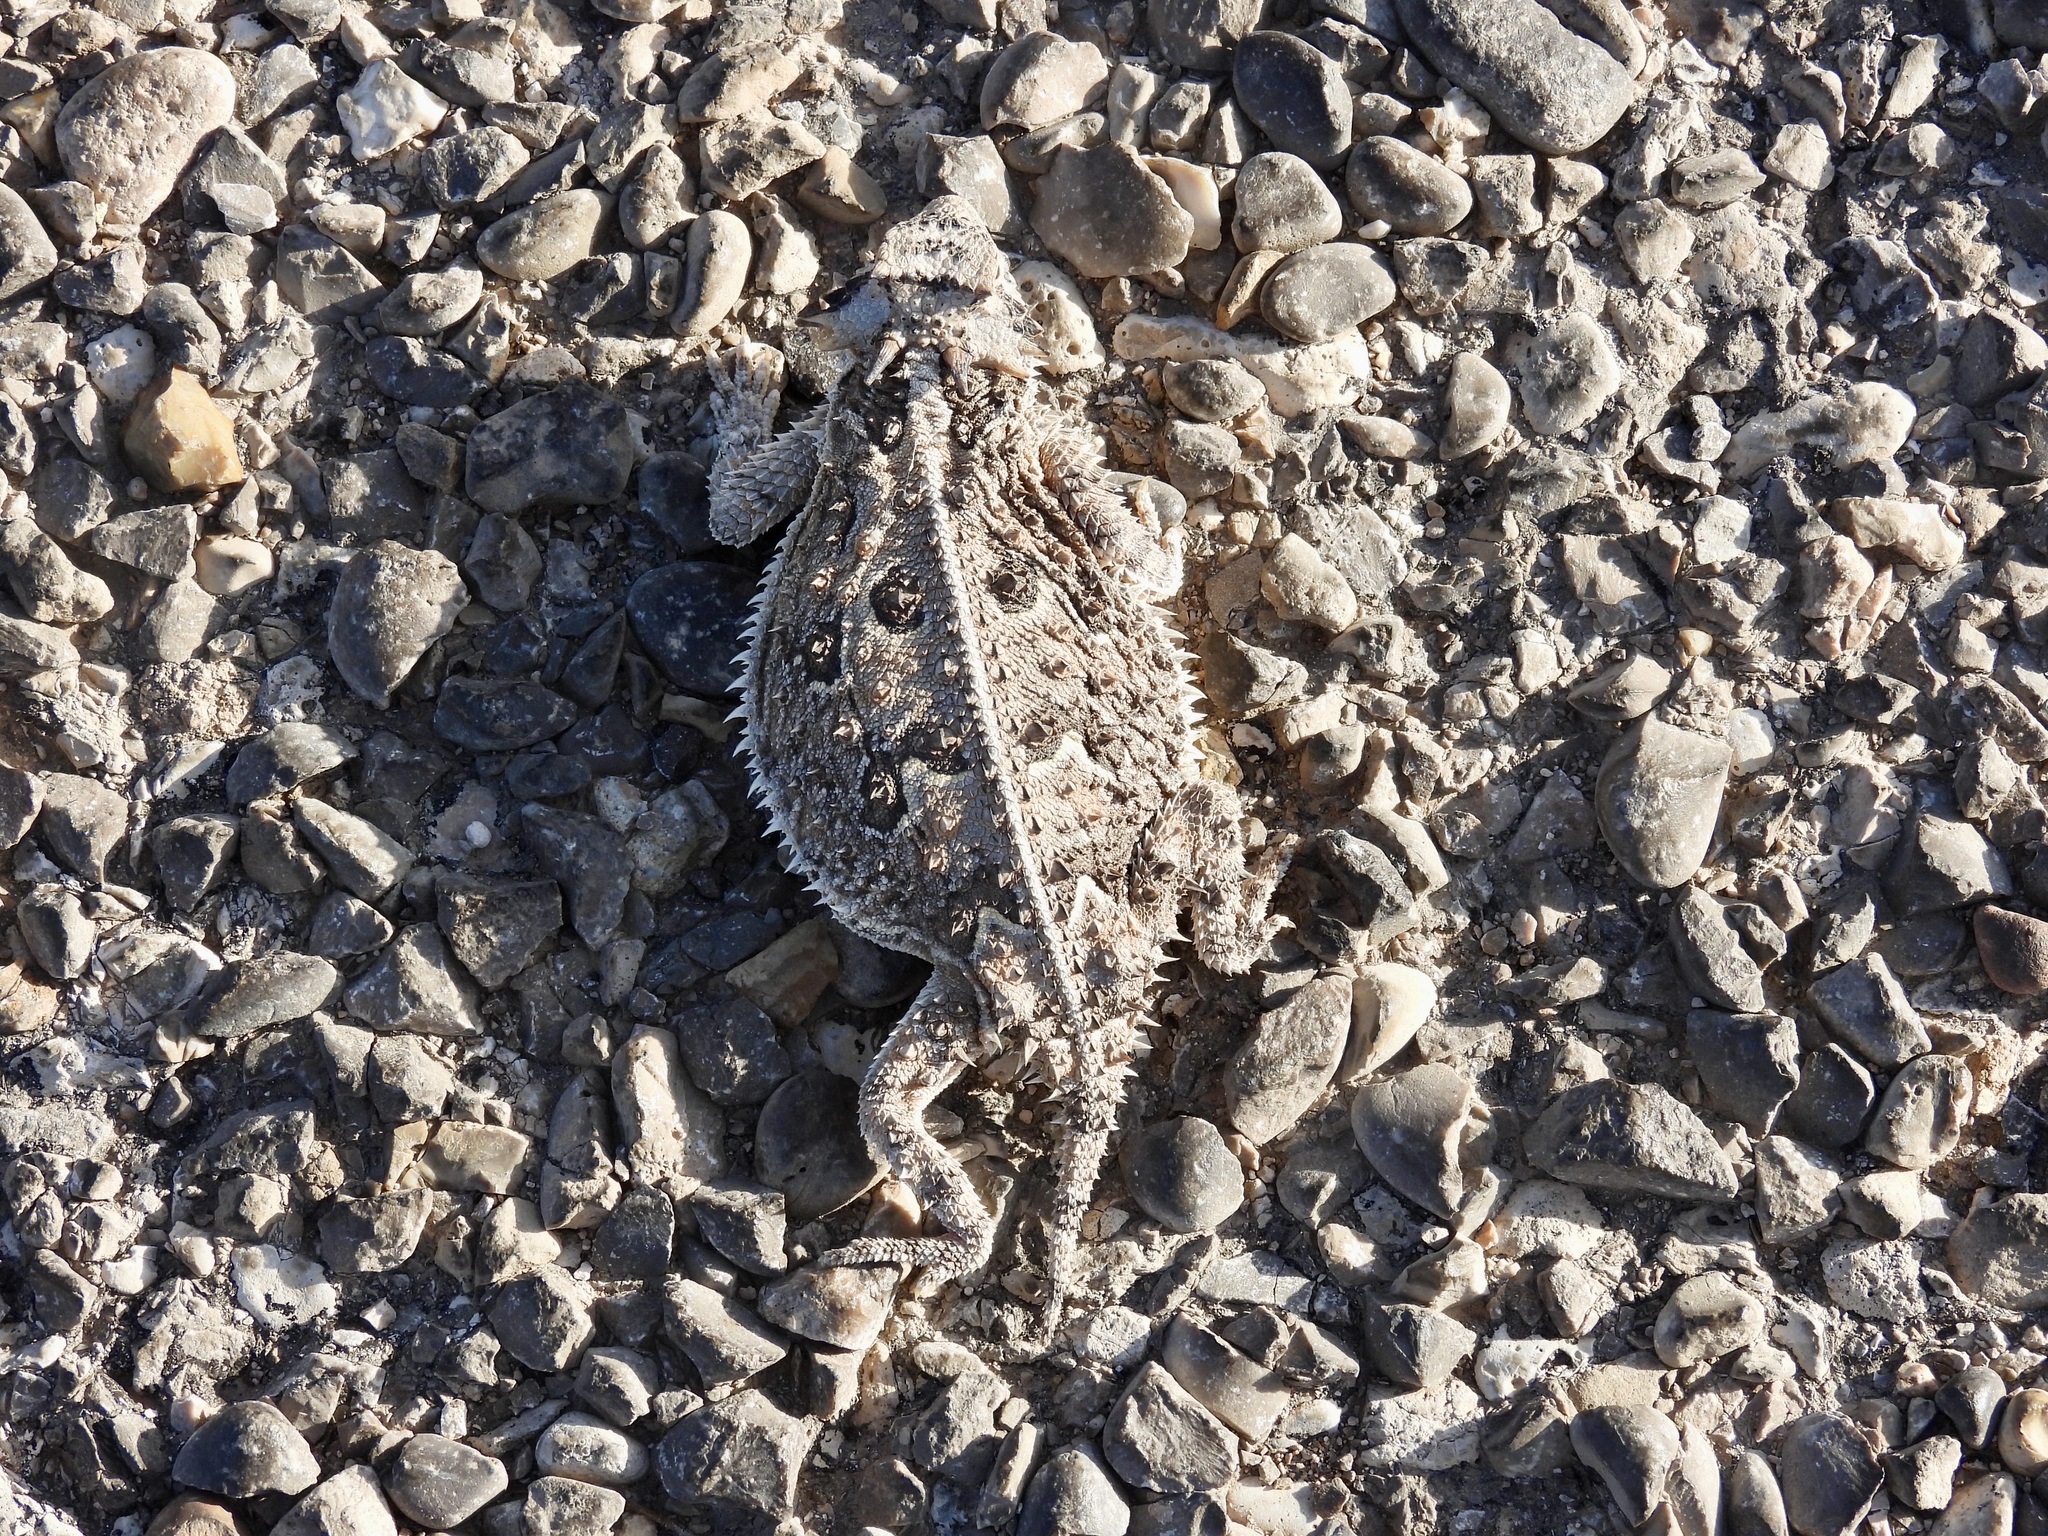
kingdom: Animalia
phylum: Chordata
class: Squamata
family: Phrynosomatidae
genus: Phrynosoma
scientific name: Phrynosoma cornutum
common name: Texas horned lizard
